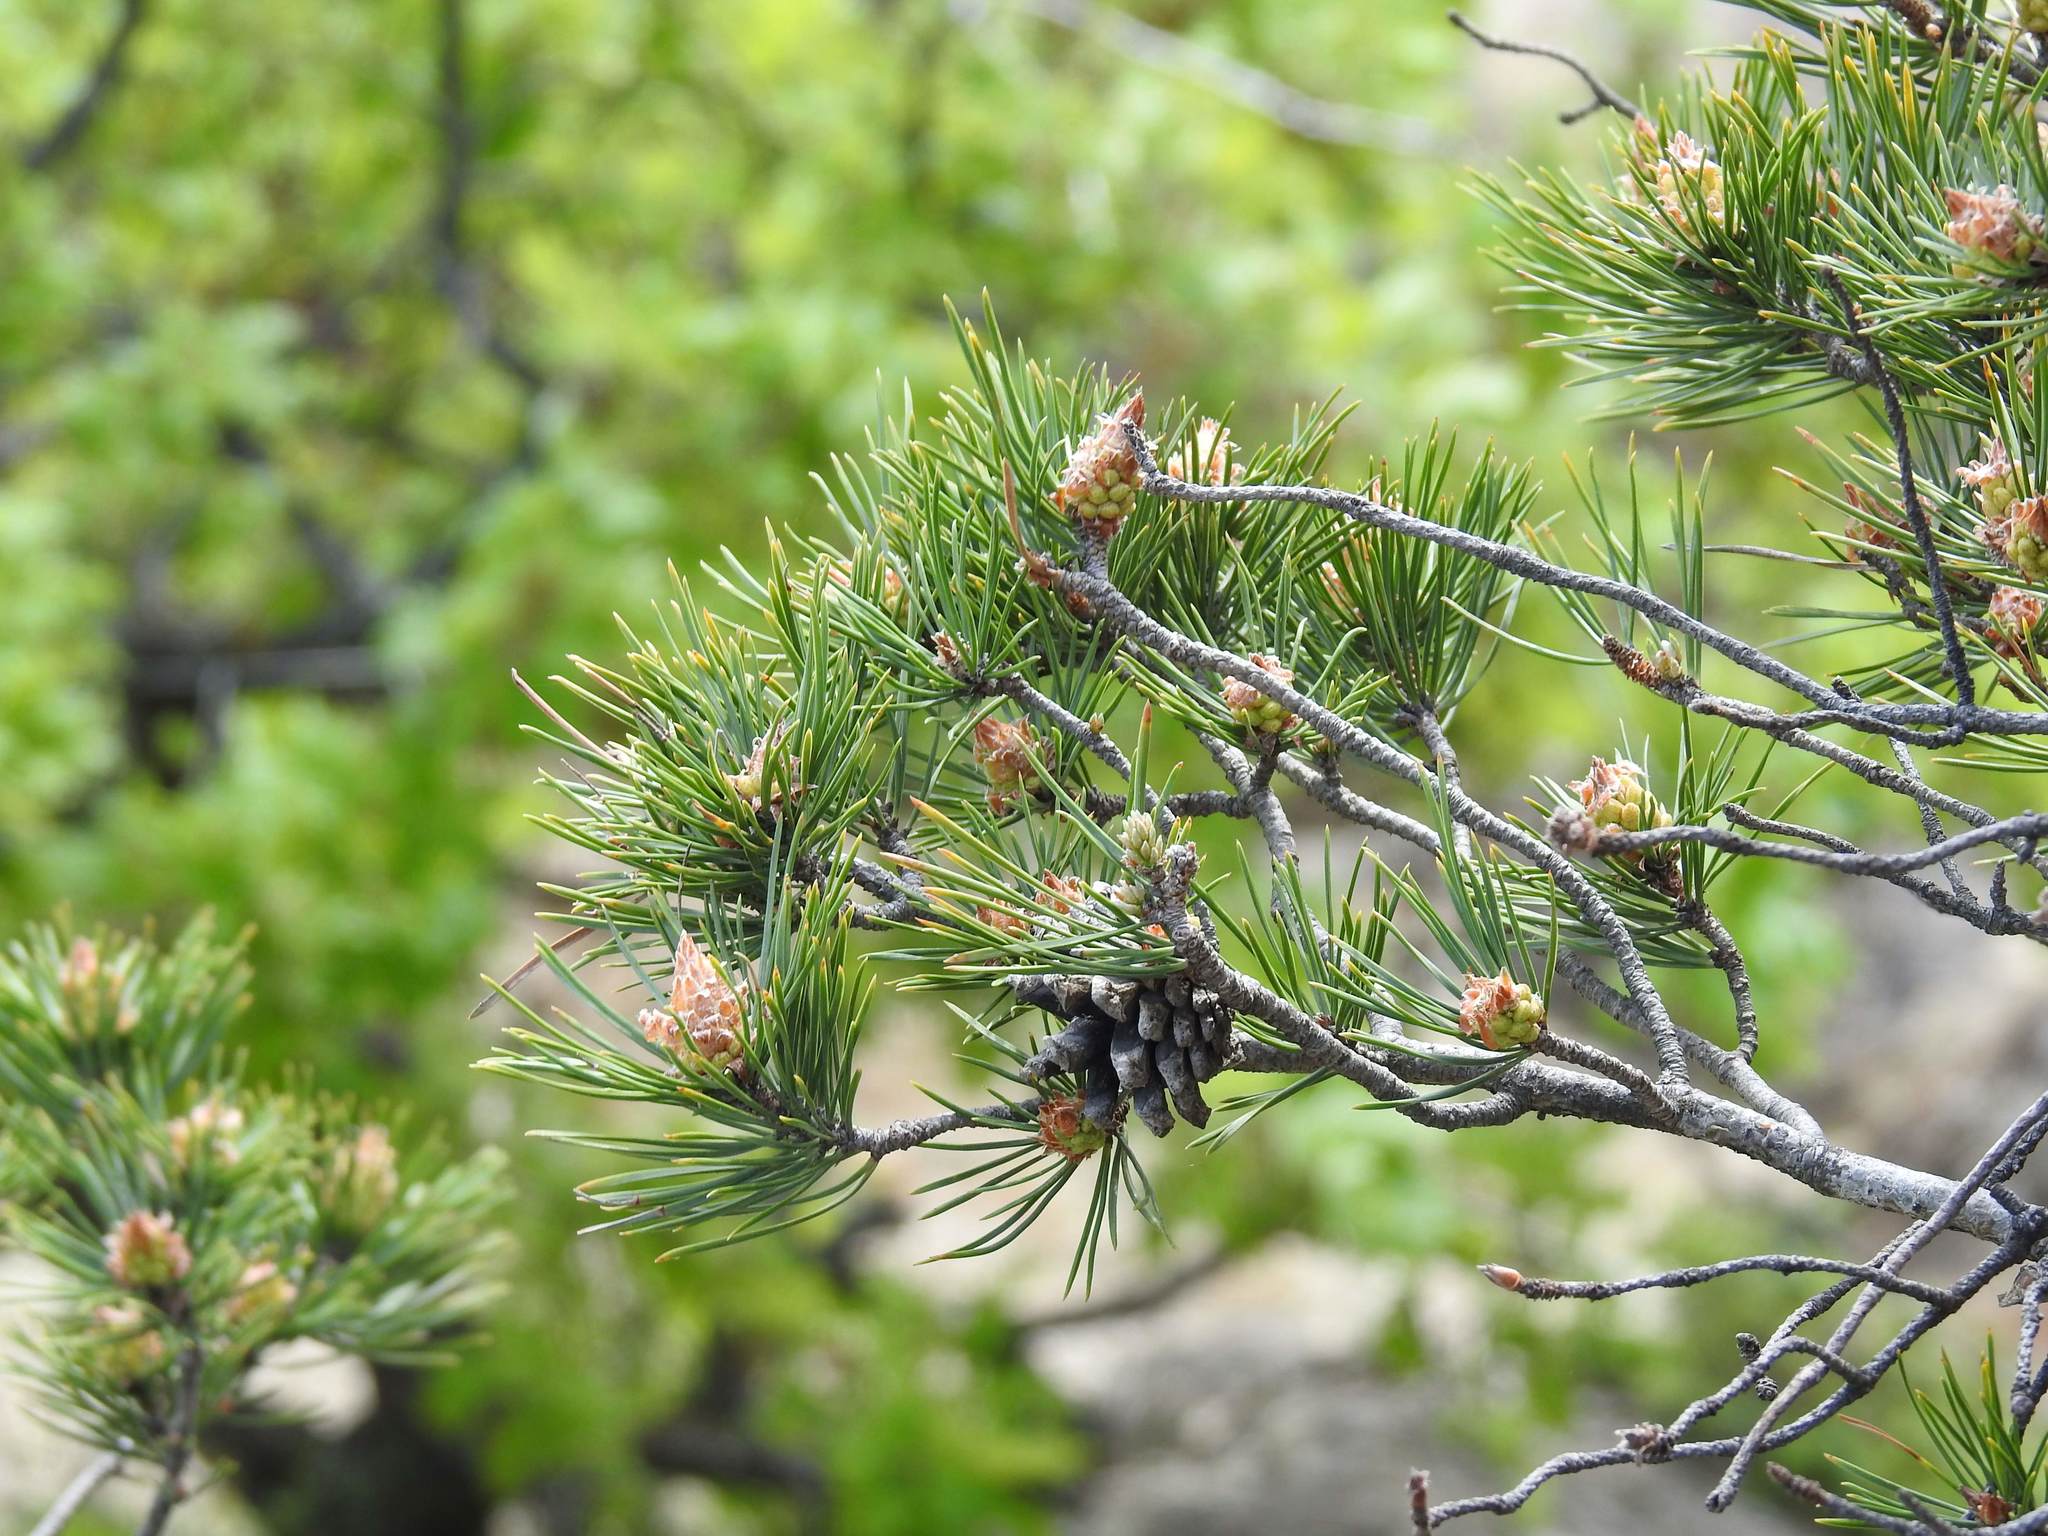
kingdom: Plantae
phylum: Tracheophyta
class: Pinopsida
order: Pinales
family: Pinaceae
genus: Pinus
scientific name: Pinus sylvestris
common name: Scots pine
